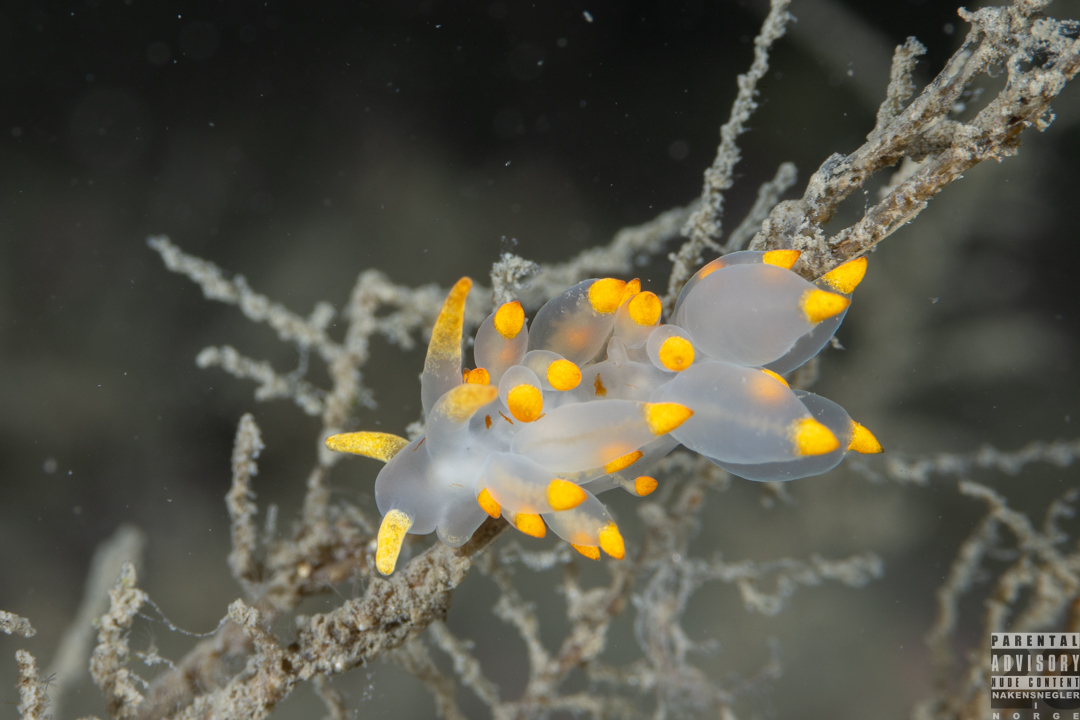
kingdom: Animalia
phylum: Mollusca
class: Gastropoda
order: Nudibranchia
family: Eubranchidae
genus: Amphorina
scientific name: Amphorina farrani
